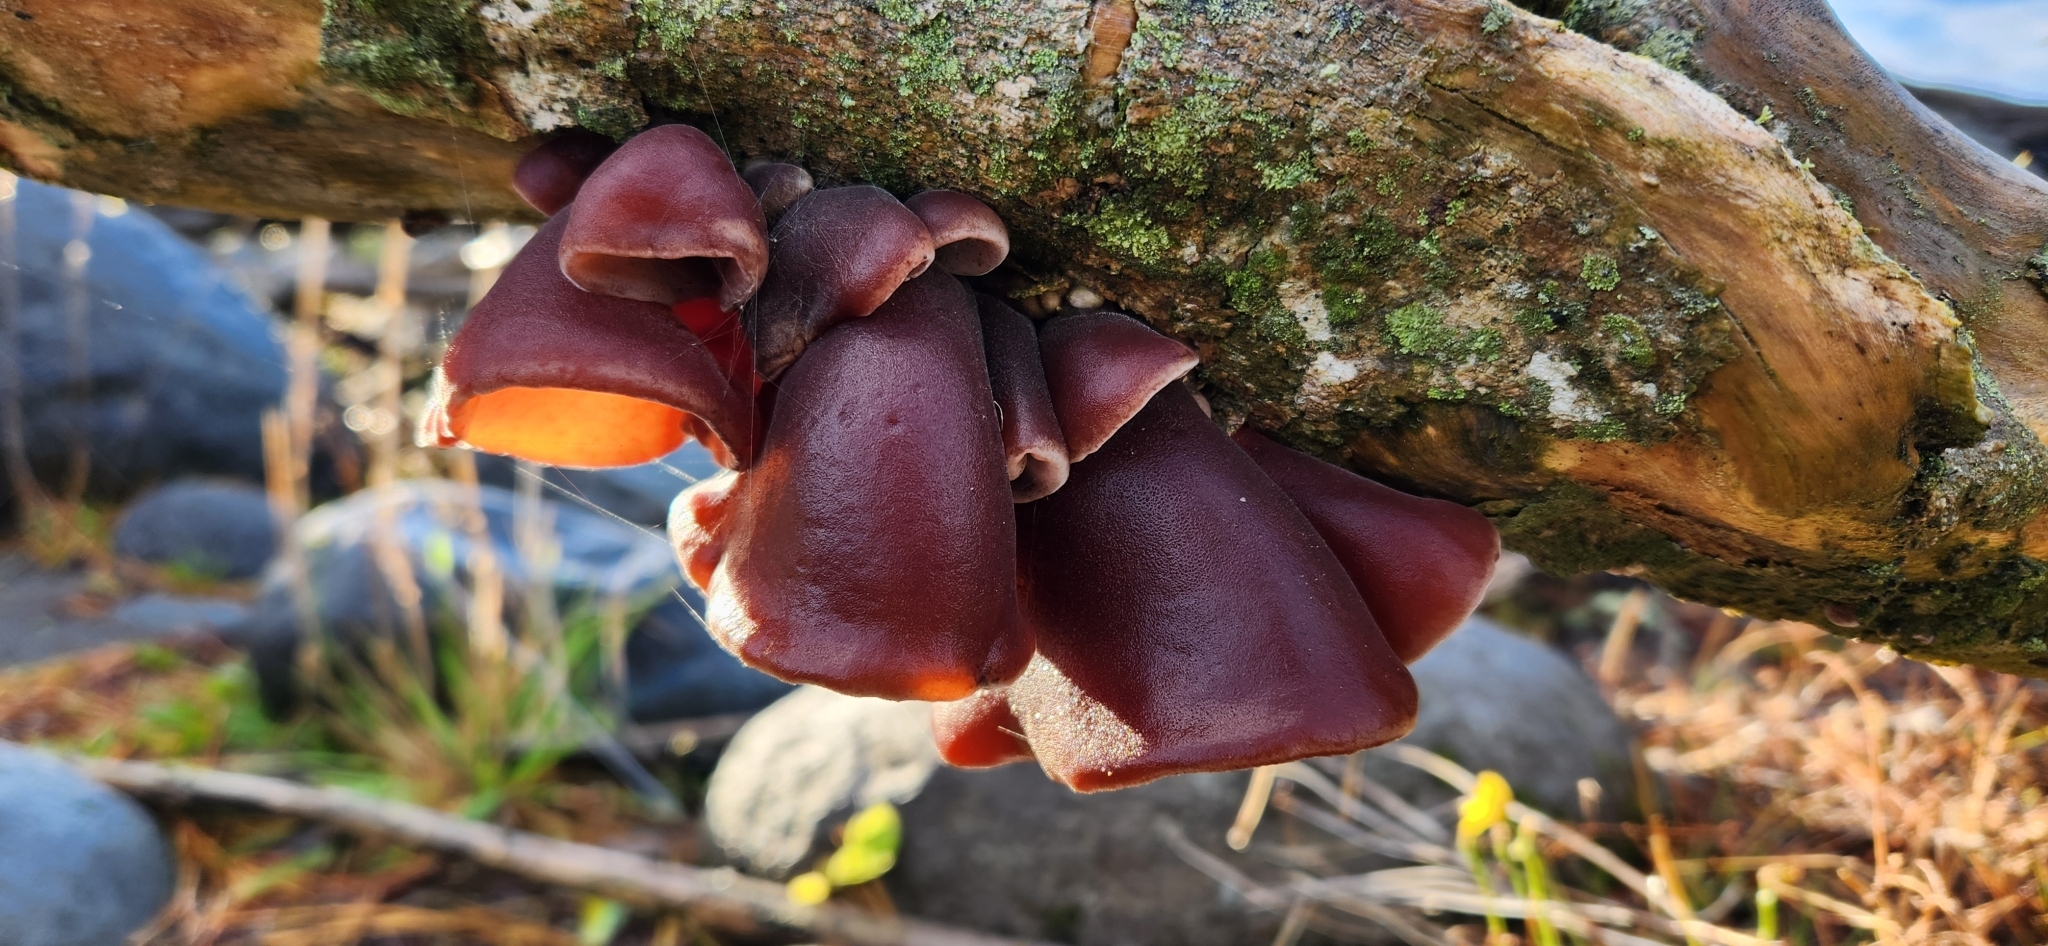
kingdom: Fungi
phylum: Basidiomycota
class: Agaricomycetes
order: Auriculariales
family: Auriculariaceae
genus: Auricularia
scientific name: Auricularia cornea
